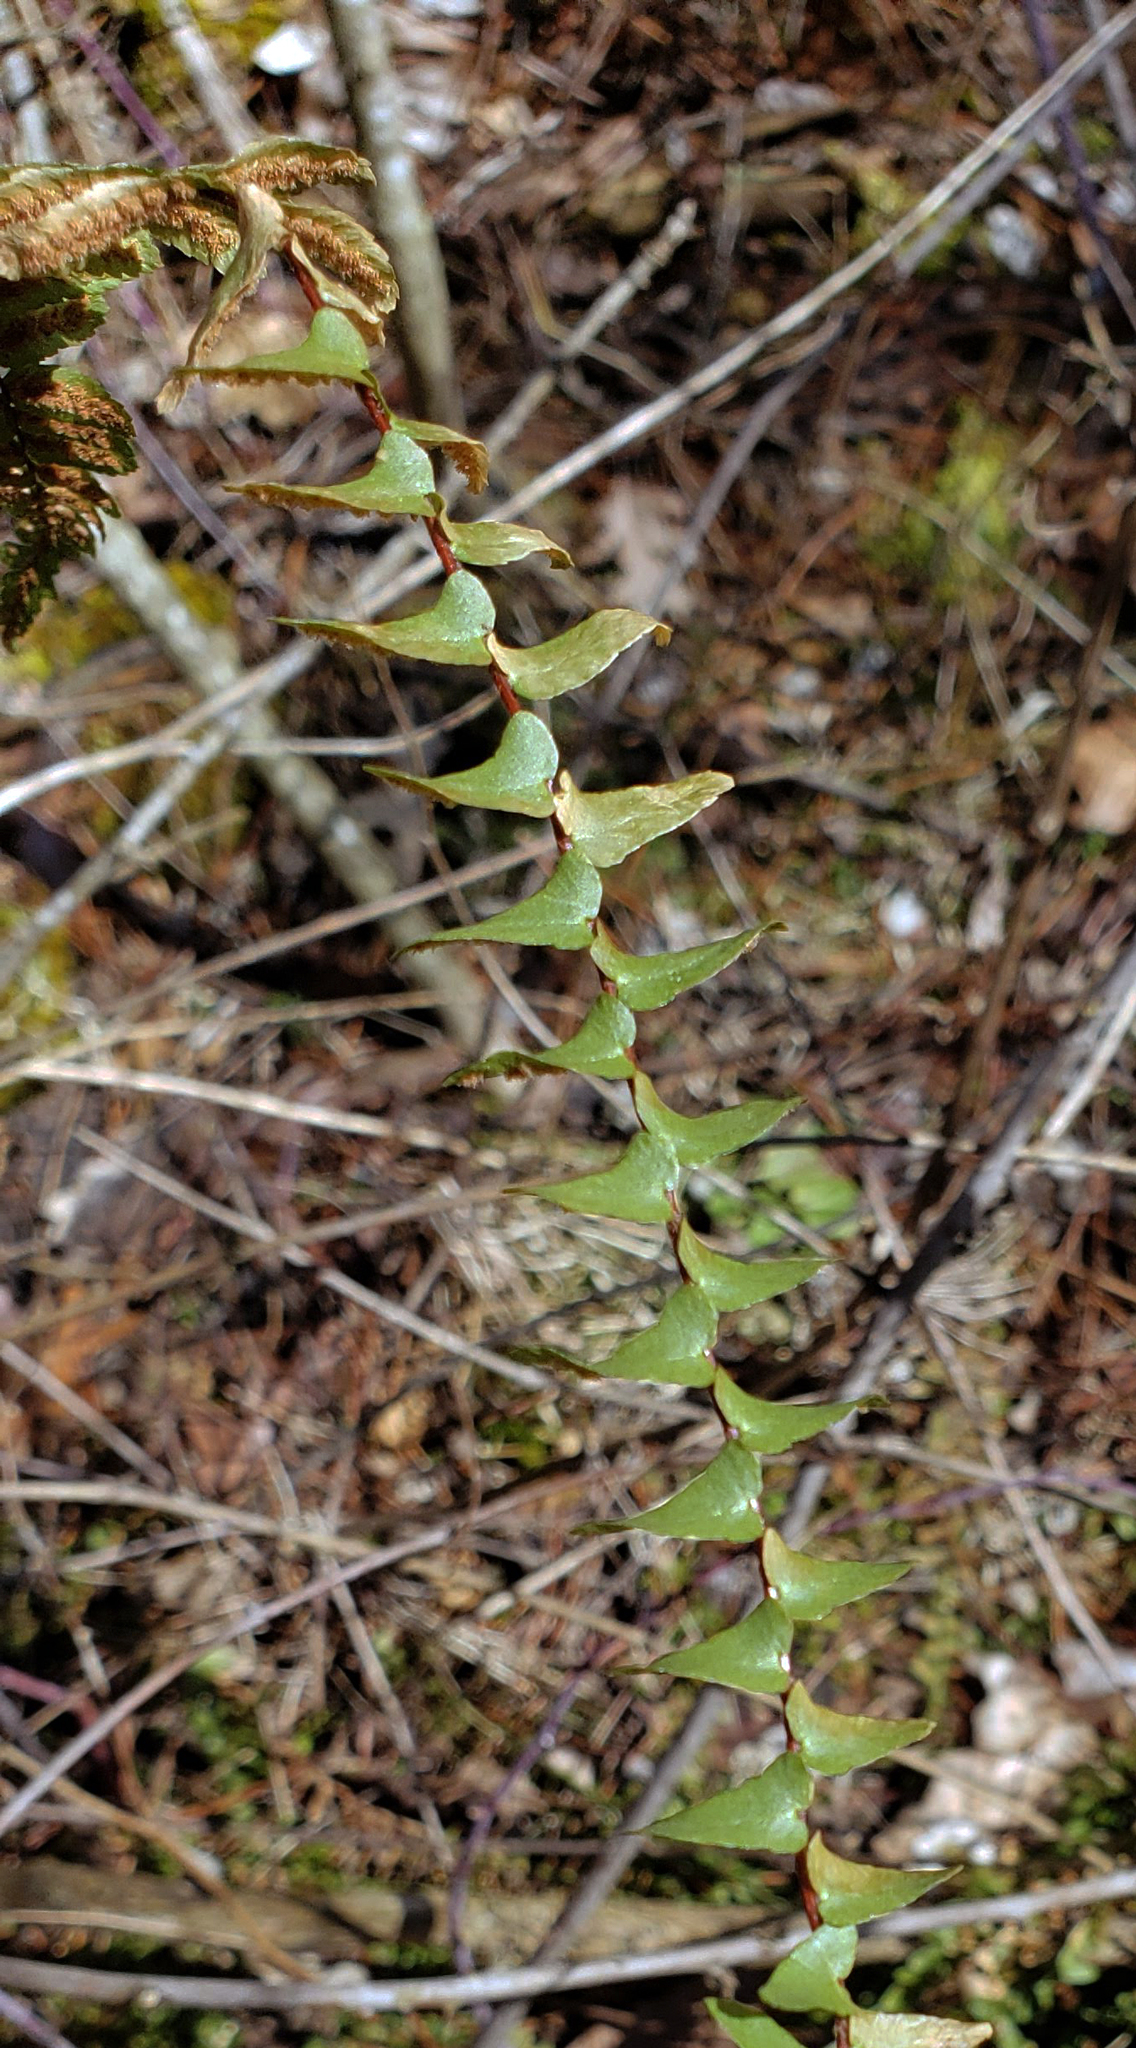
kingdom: Plantae
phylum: Tracheophyta
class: Polypodiopsida
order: Polypodiales
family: Aspleniaceae
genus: Asplenium
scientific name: Asplenium platyneuron
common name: Ebony spleenwort
